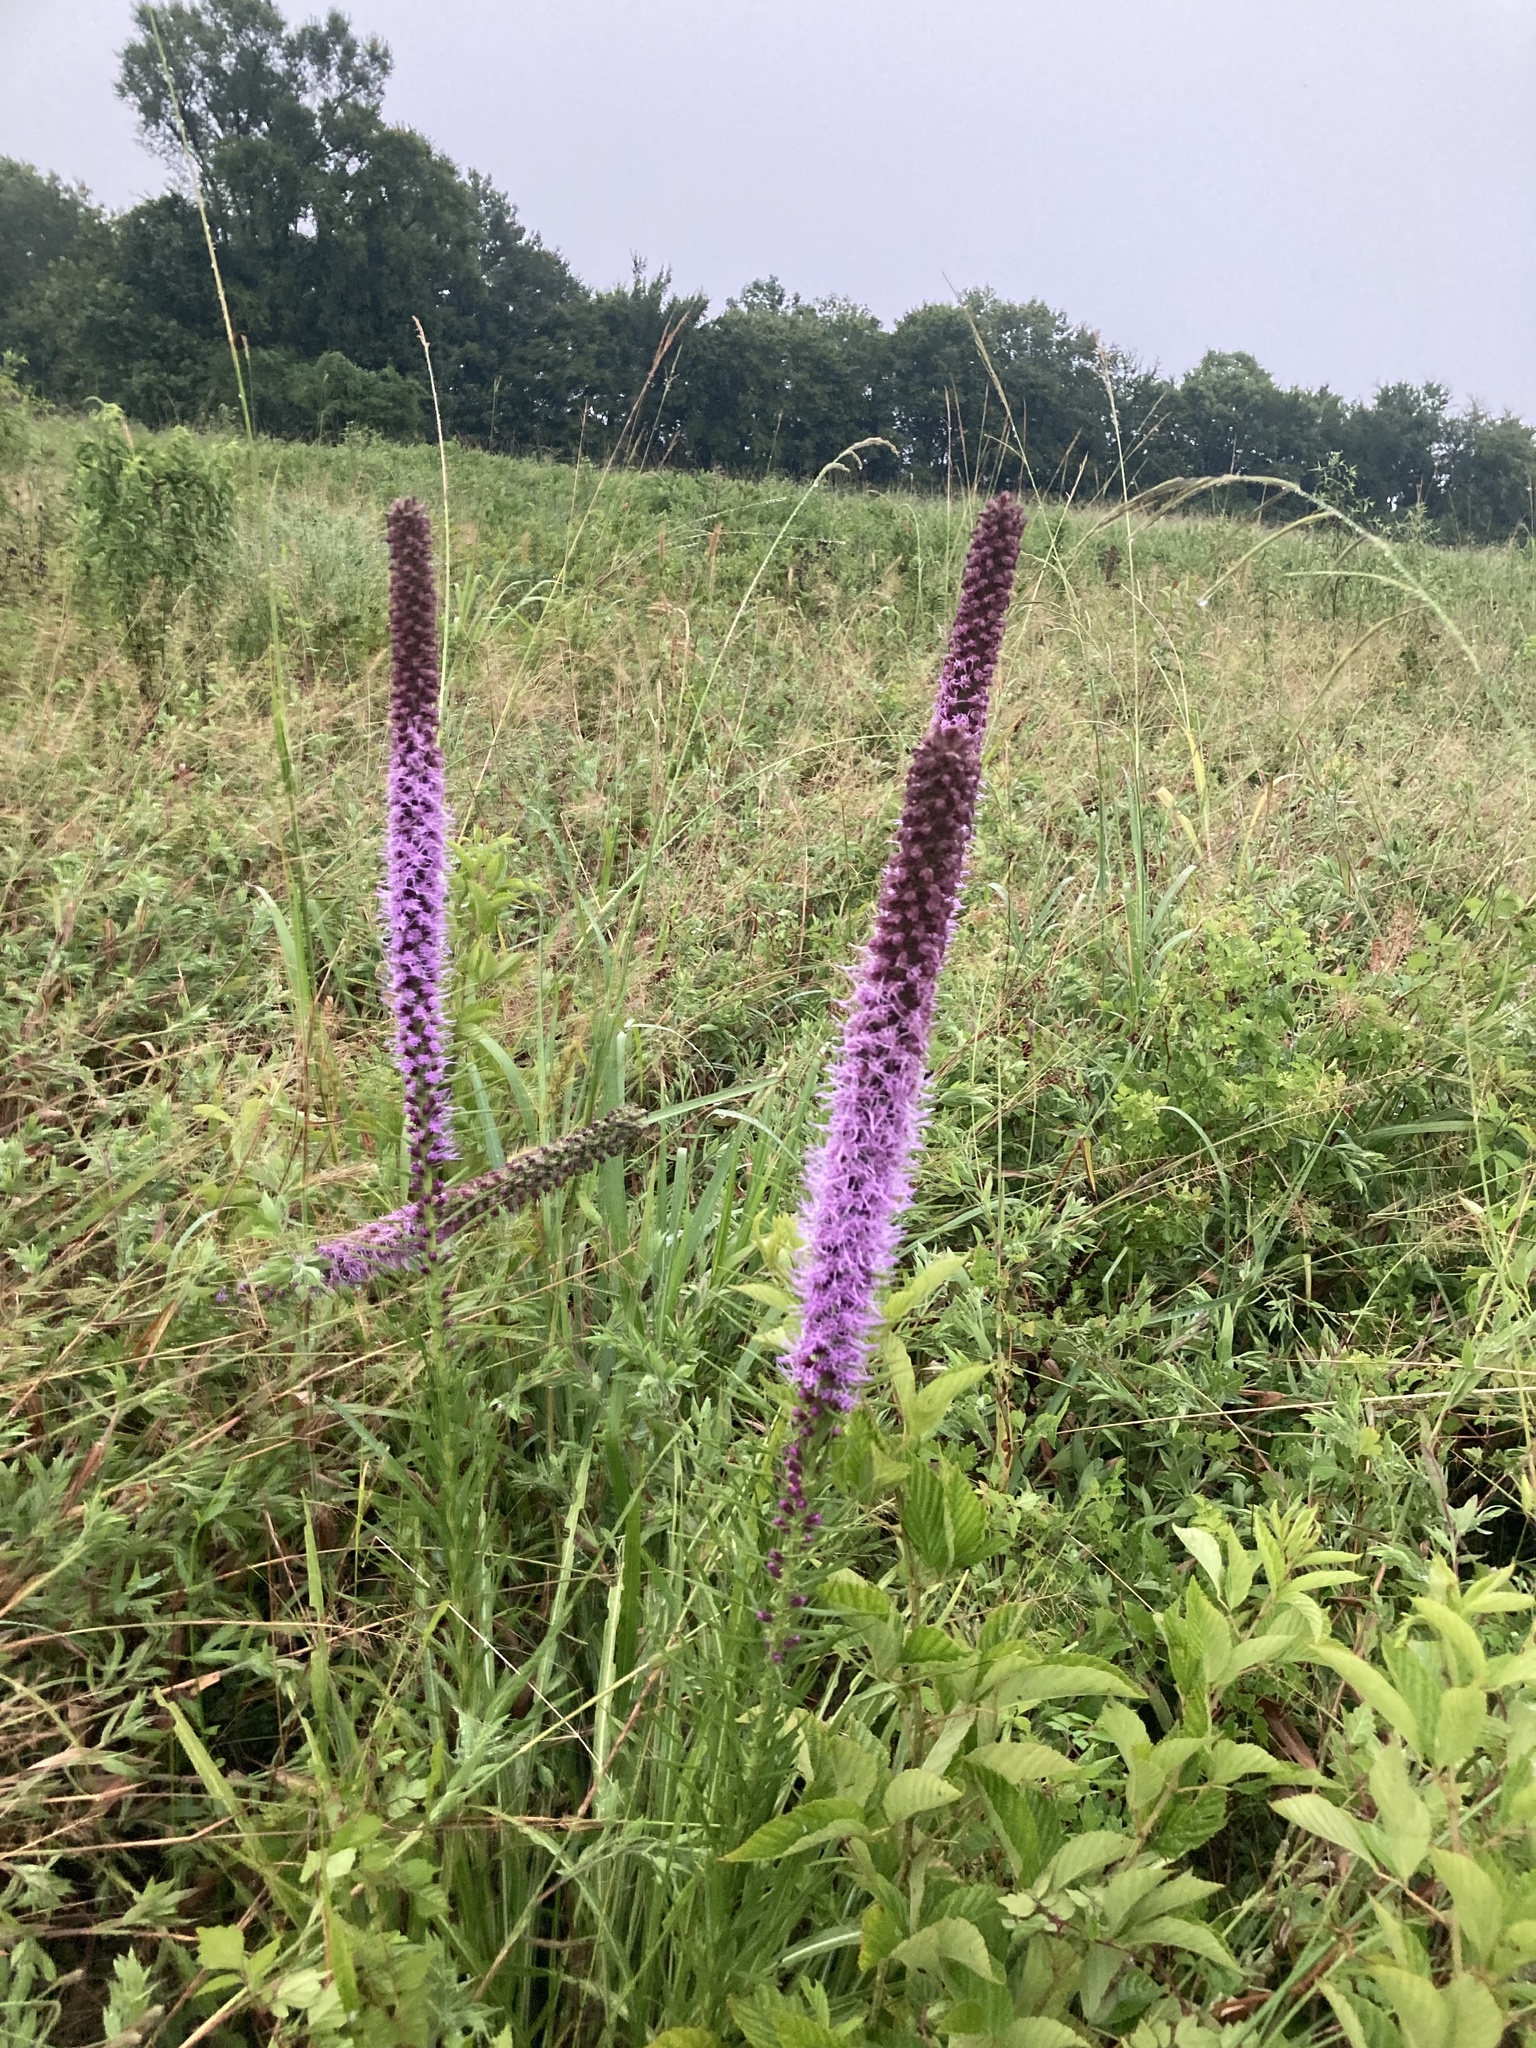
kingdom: Plantae
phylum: Tracheophyta
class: Magnoliopsida
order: Asterales
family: Asteraceae
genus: Liatris
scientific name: Liatris pycnostachya
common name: Cattail gayfeather
